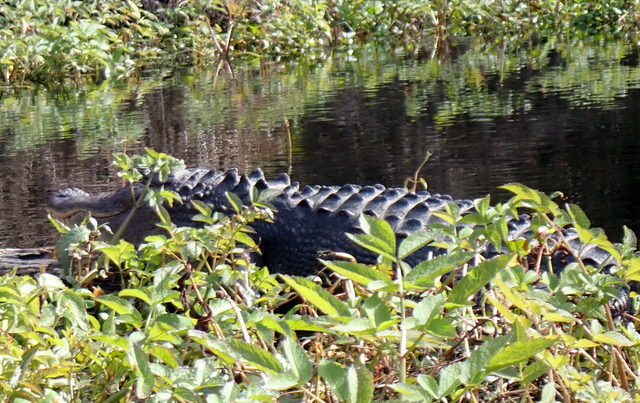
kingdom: Animalia
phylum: Chordata
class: Crocodylia
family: Alligatoridae
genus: Alligator
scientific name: Alligator mississippiensis
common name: American alligator
